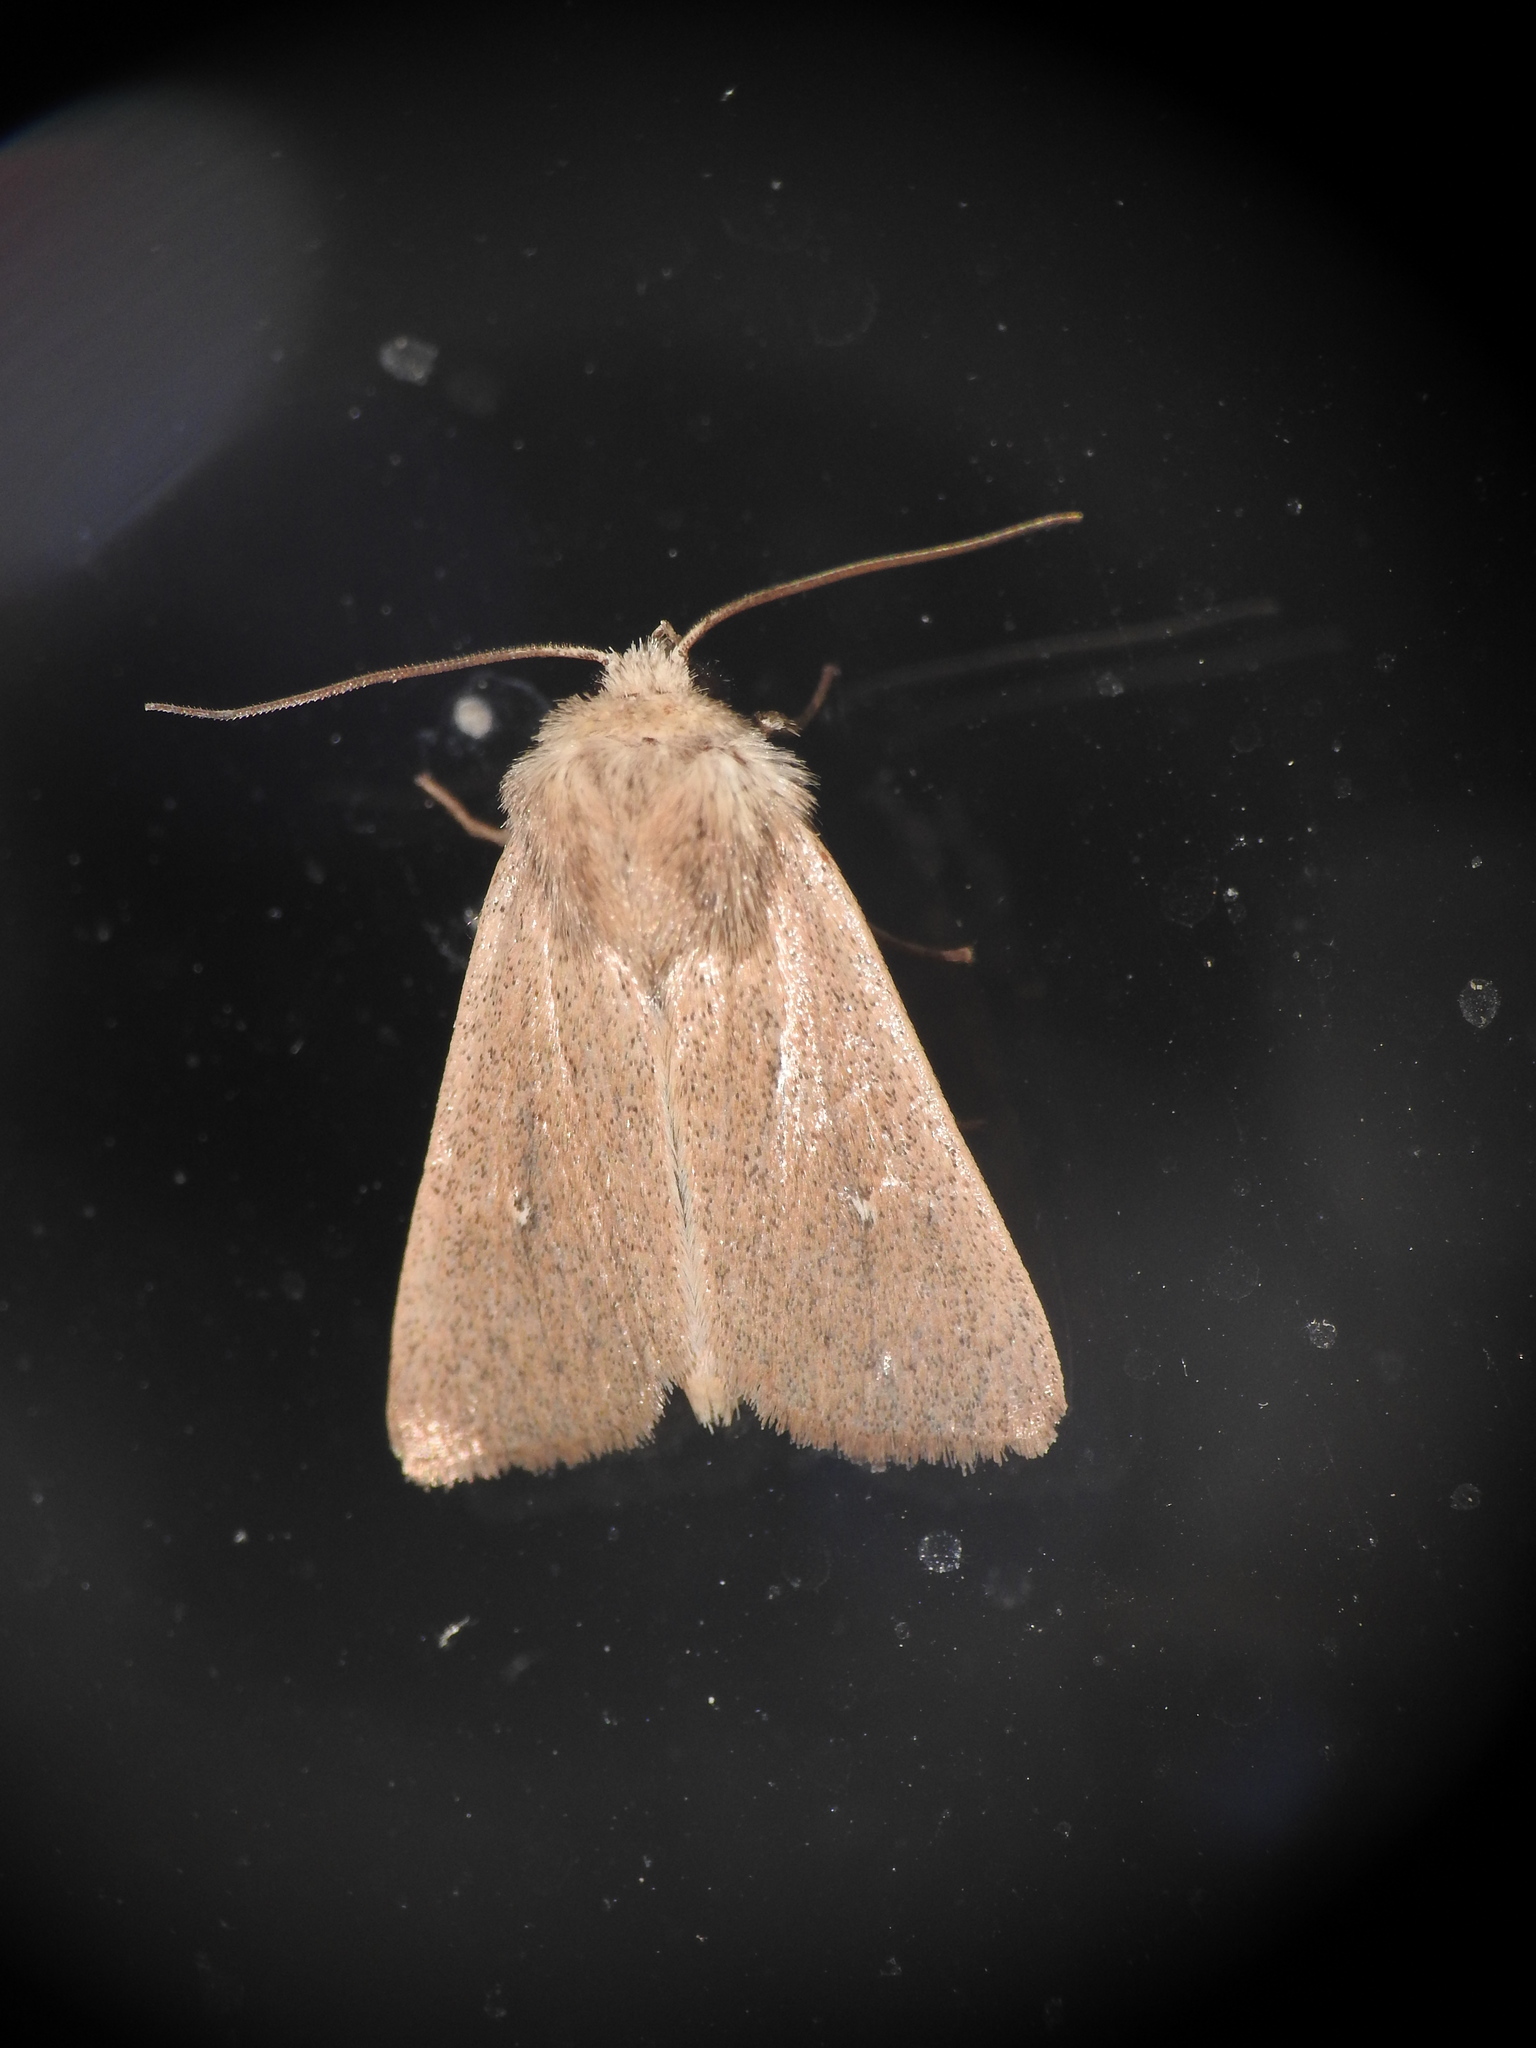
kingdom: Animalia
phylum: Arthropoda
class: Insecta
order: Lepidoptera
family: Noctuidae
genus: Mythimna
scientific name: Mythimna sicula
